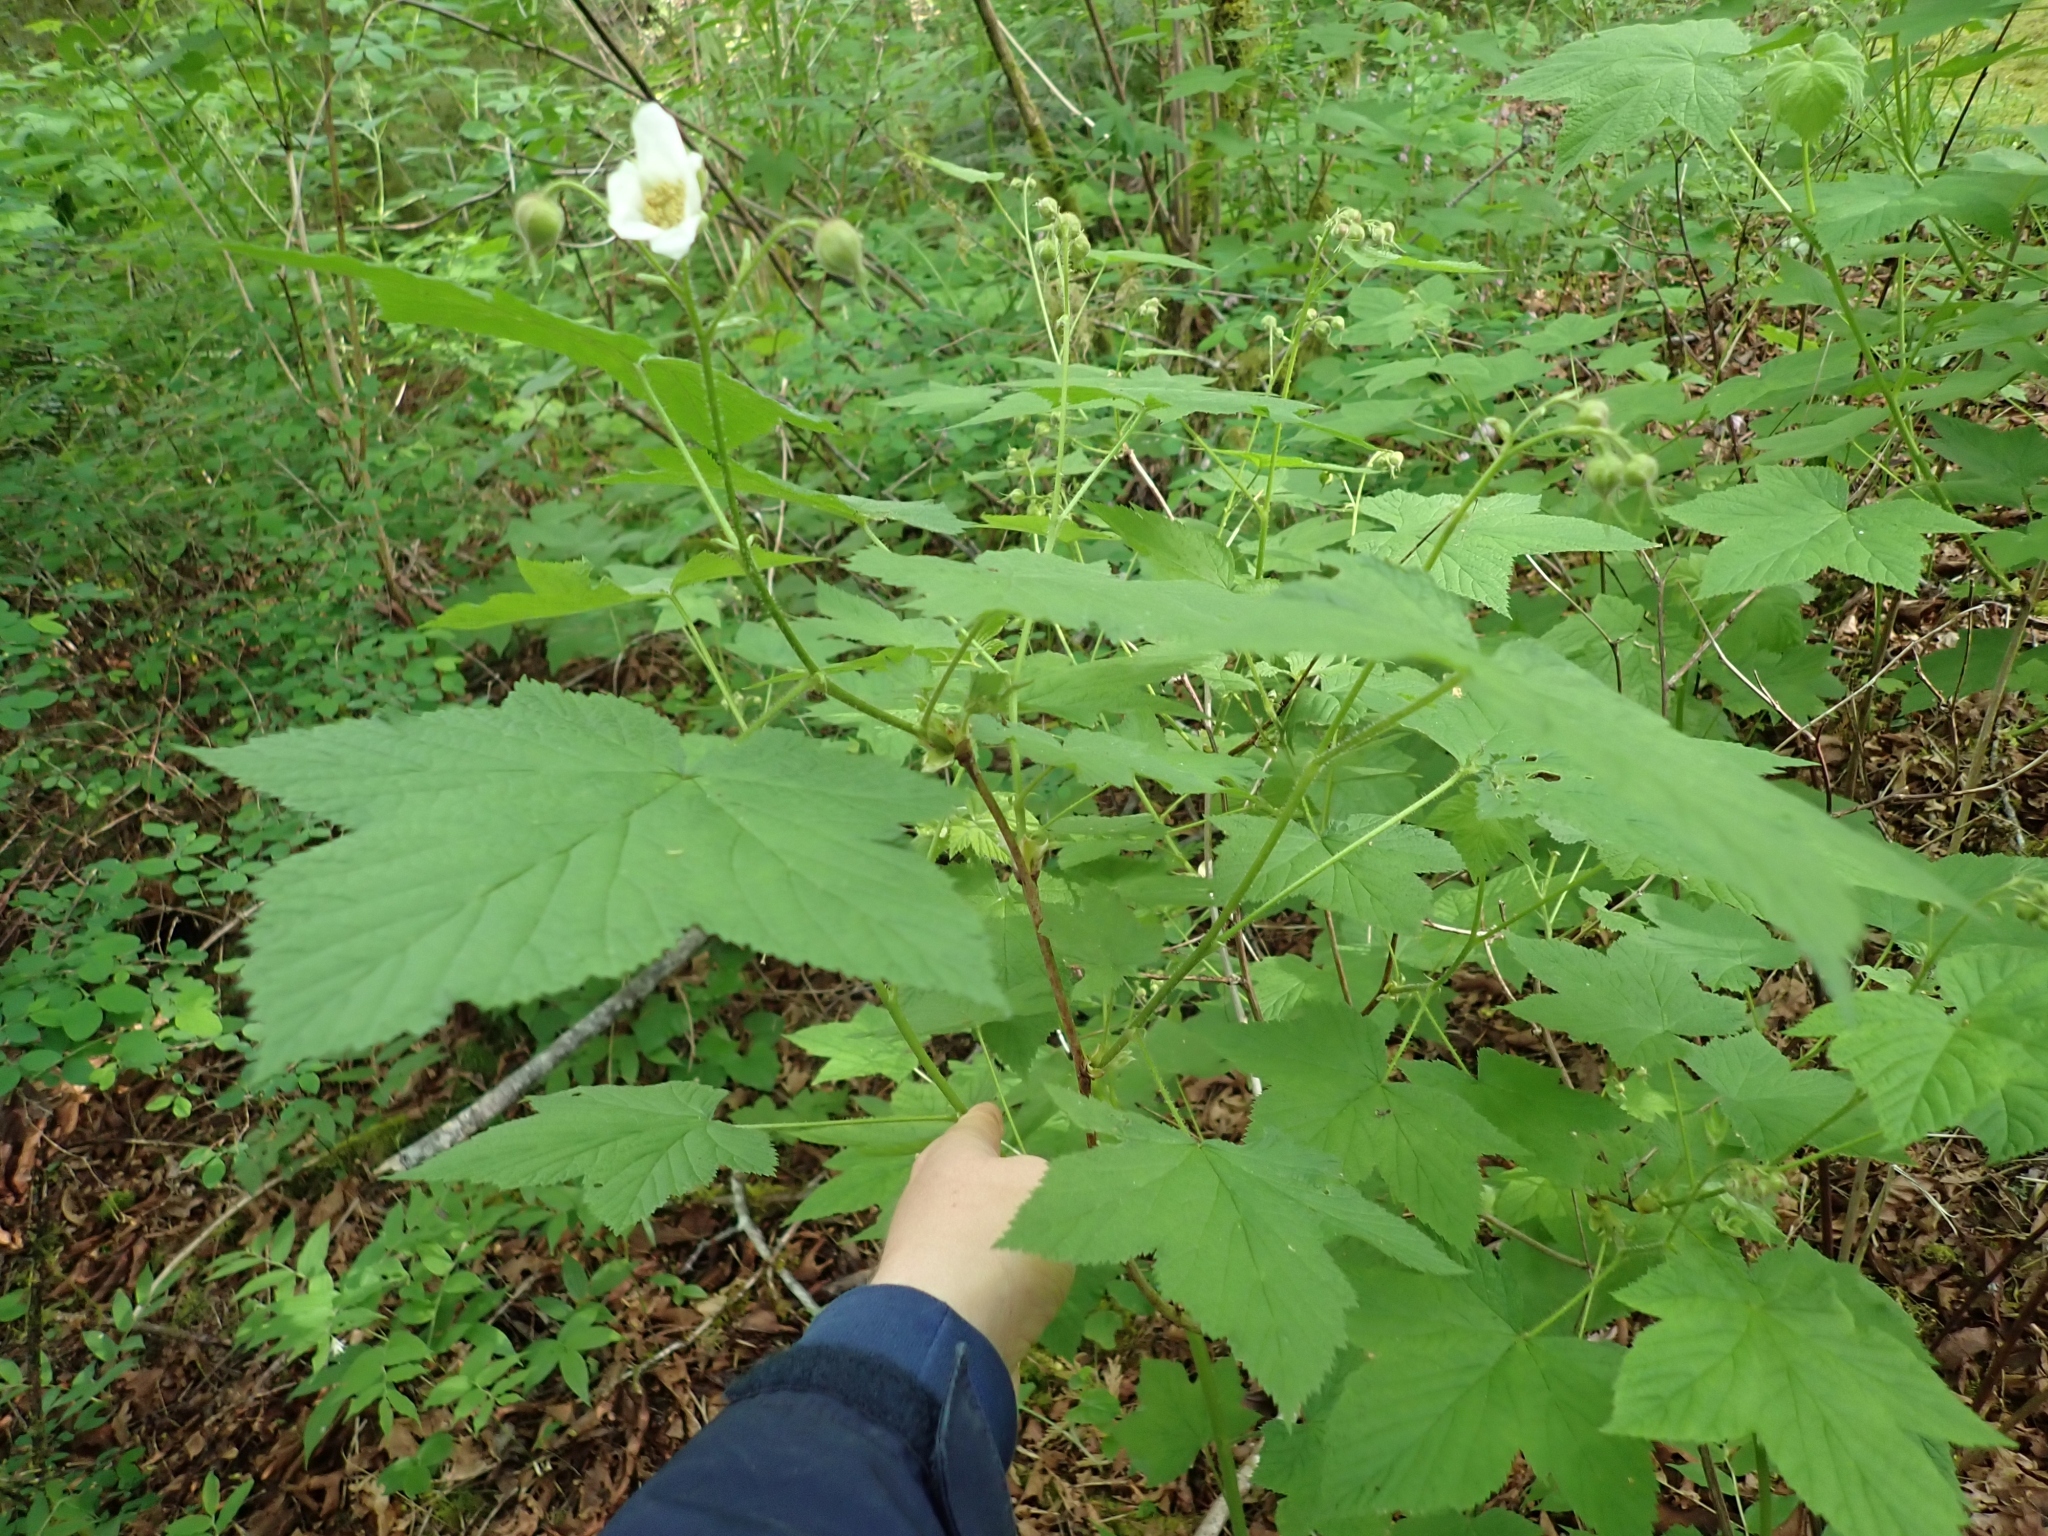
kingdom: Plantae
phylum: Tracheophyta
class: Magnoliopsida
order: Rosales
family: Rosaceae
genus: Rubus
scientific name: Rubus parviflorus
